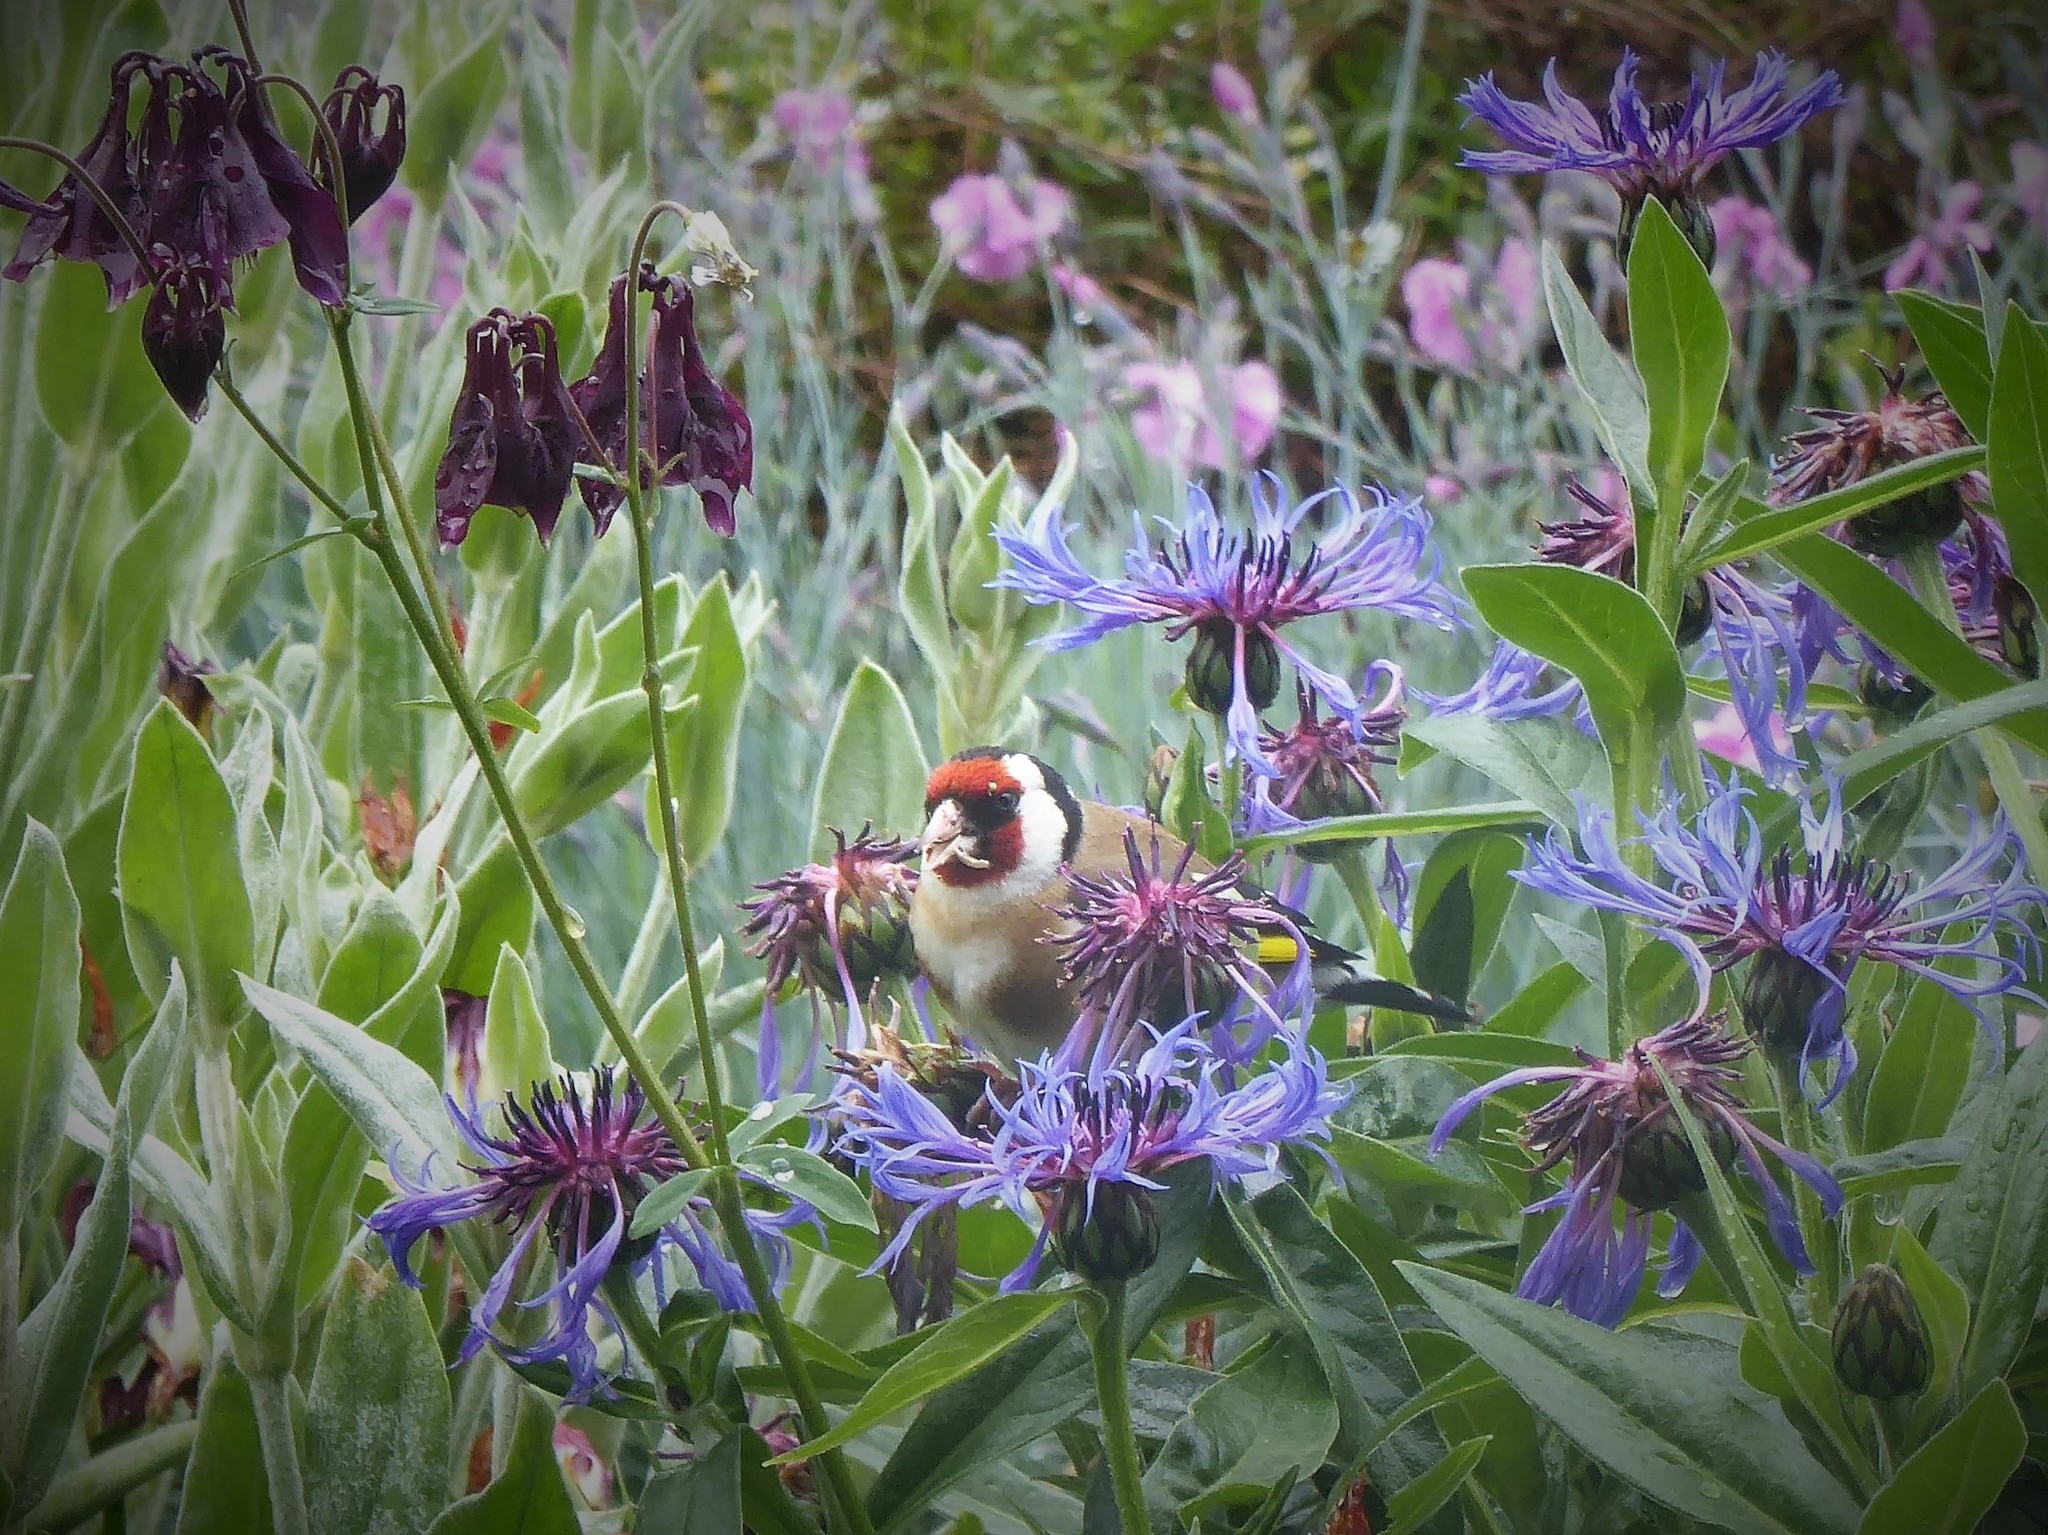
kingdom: Animalia
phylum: Chordata
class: Aves
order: Passeriformes
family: Fringillidae
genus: Carduelis
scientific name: Carduelis carduelis
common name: European goldfinch
